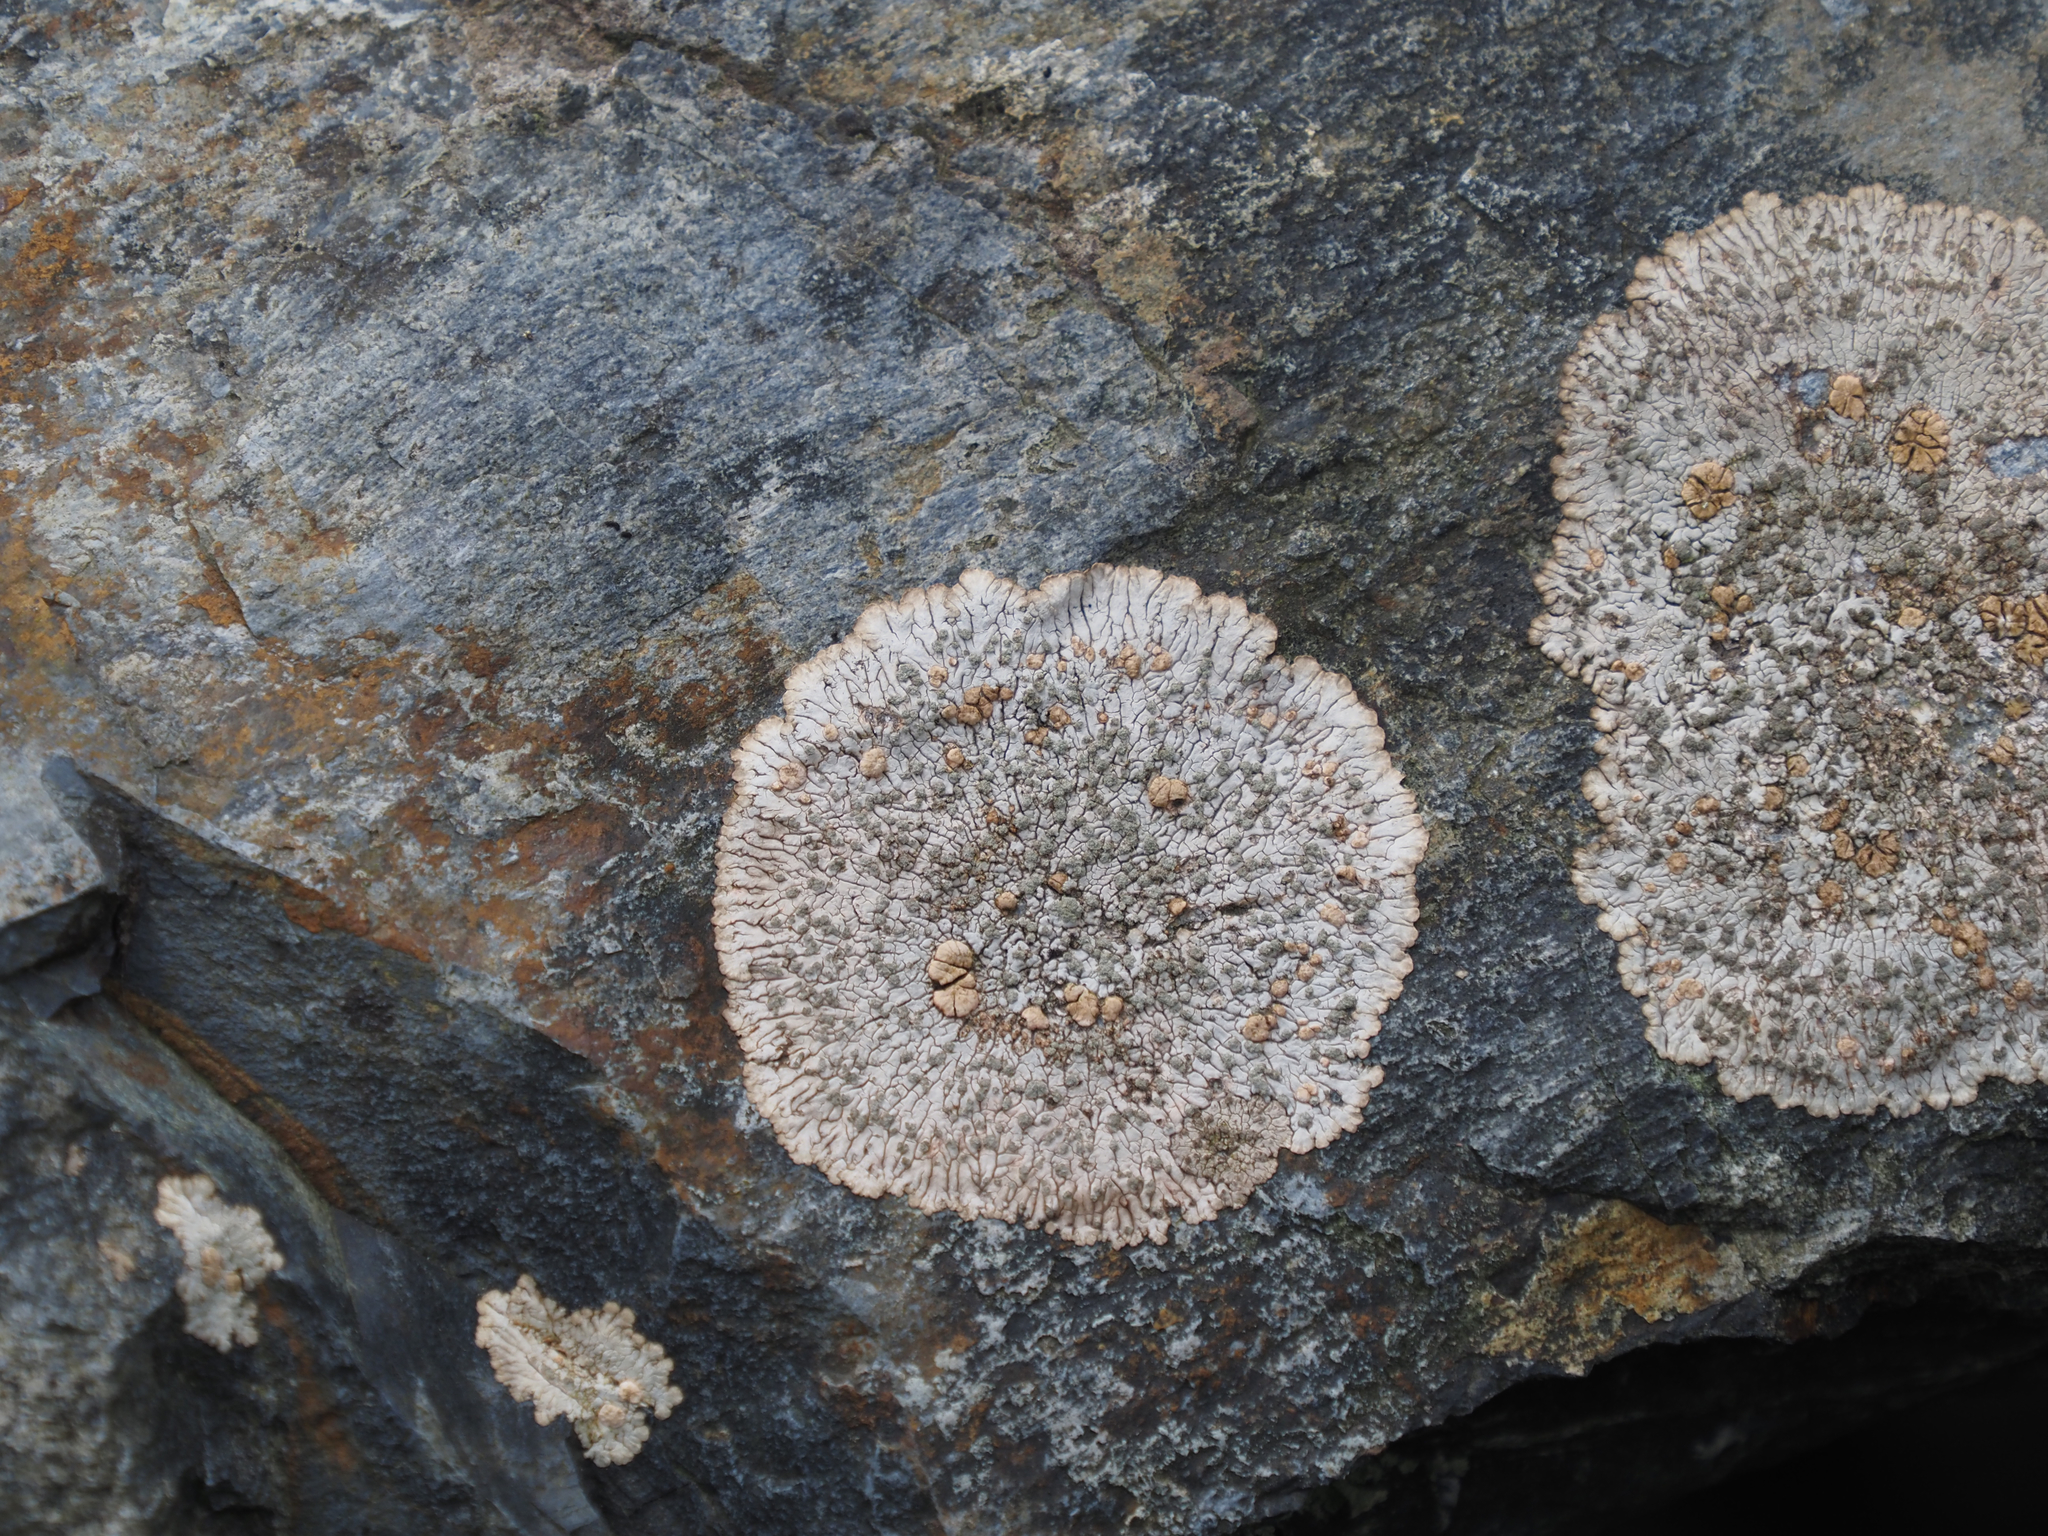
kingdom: Fungi
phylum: Ascomycota
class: Lecanoromycetes
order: Baeomycetales
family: Trapeliaceae
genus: Placopsis
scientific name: Placopsis lambii
